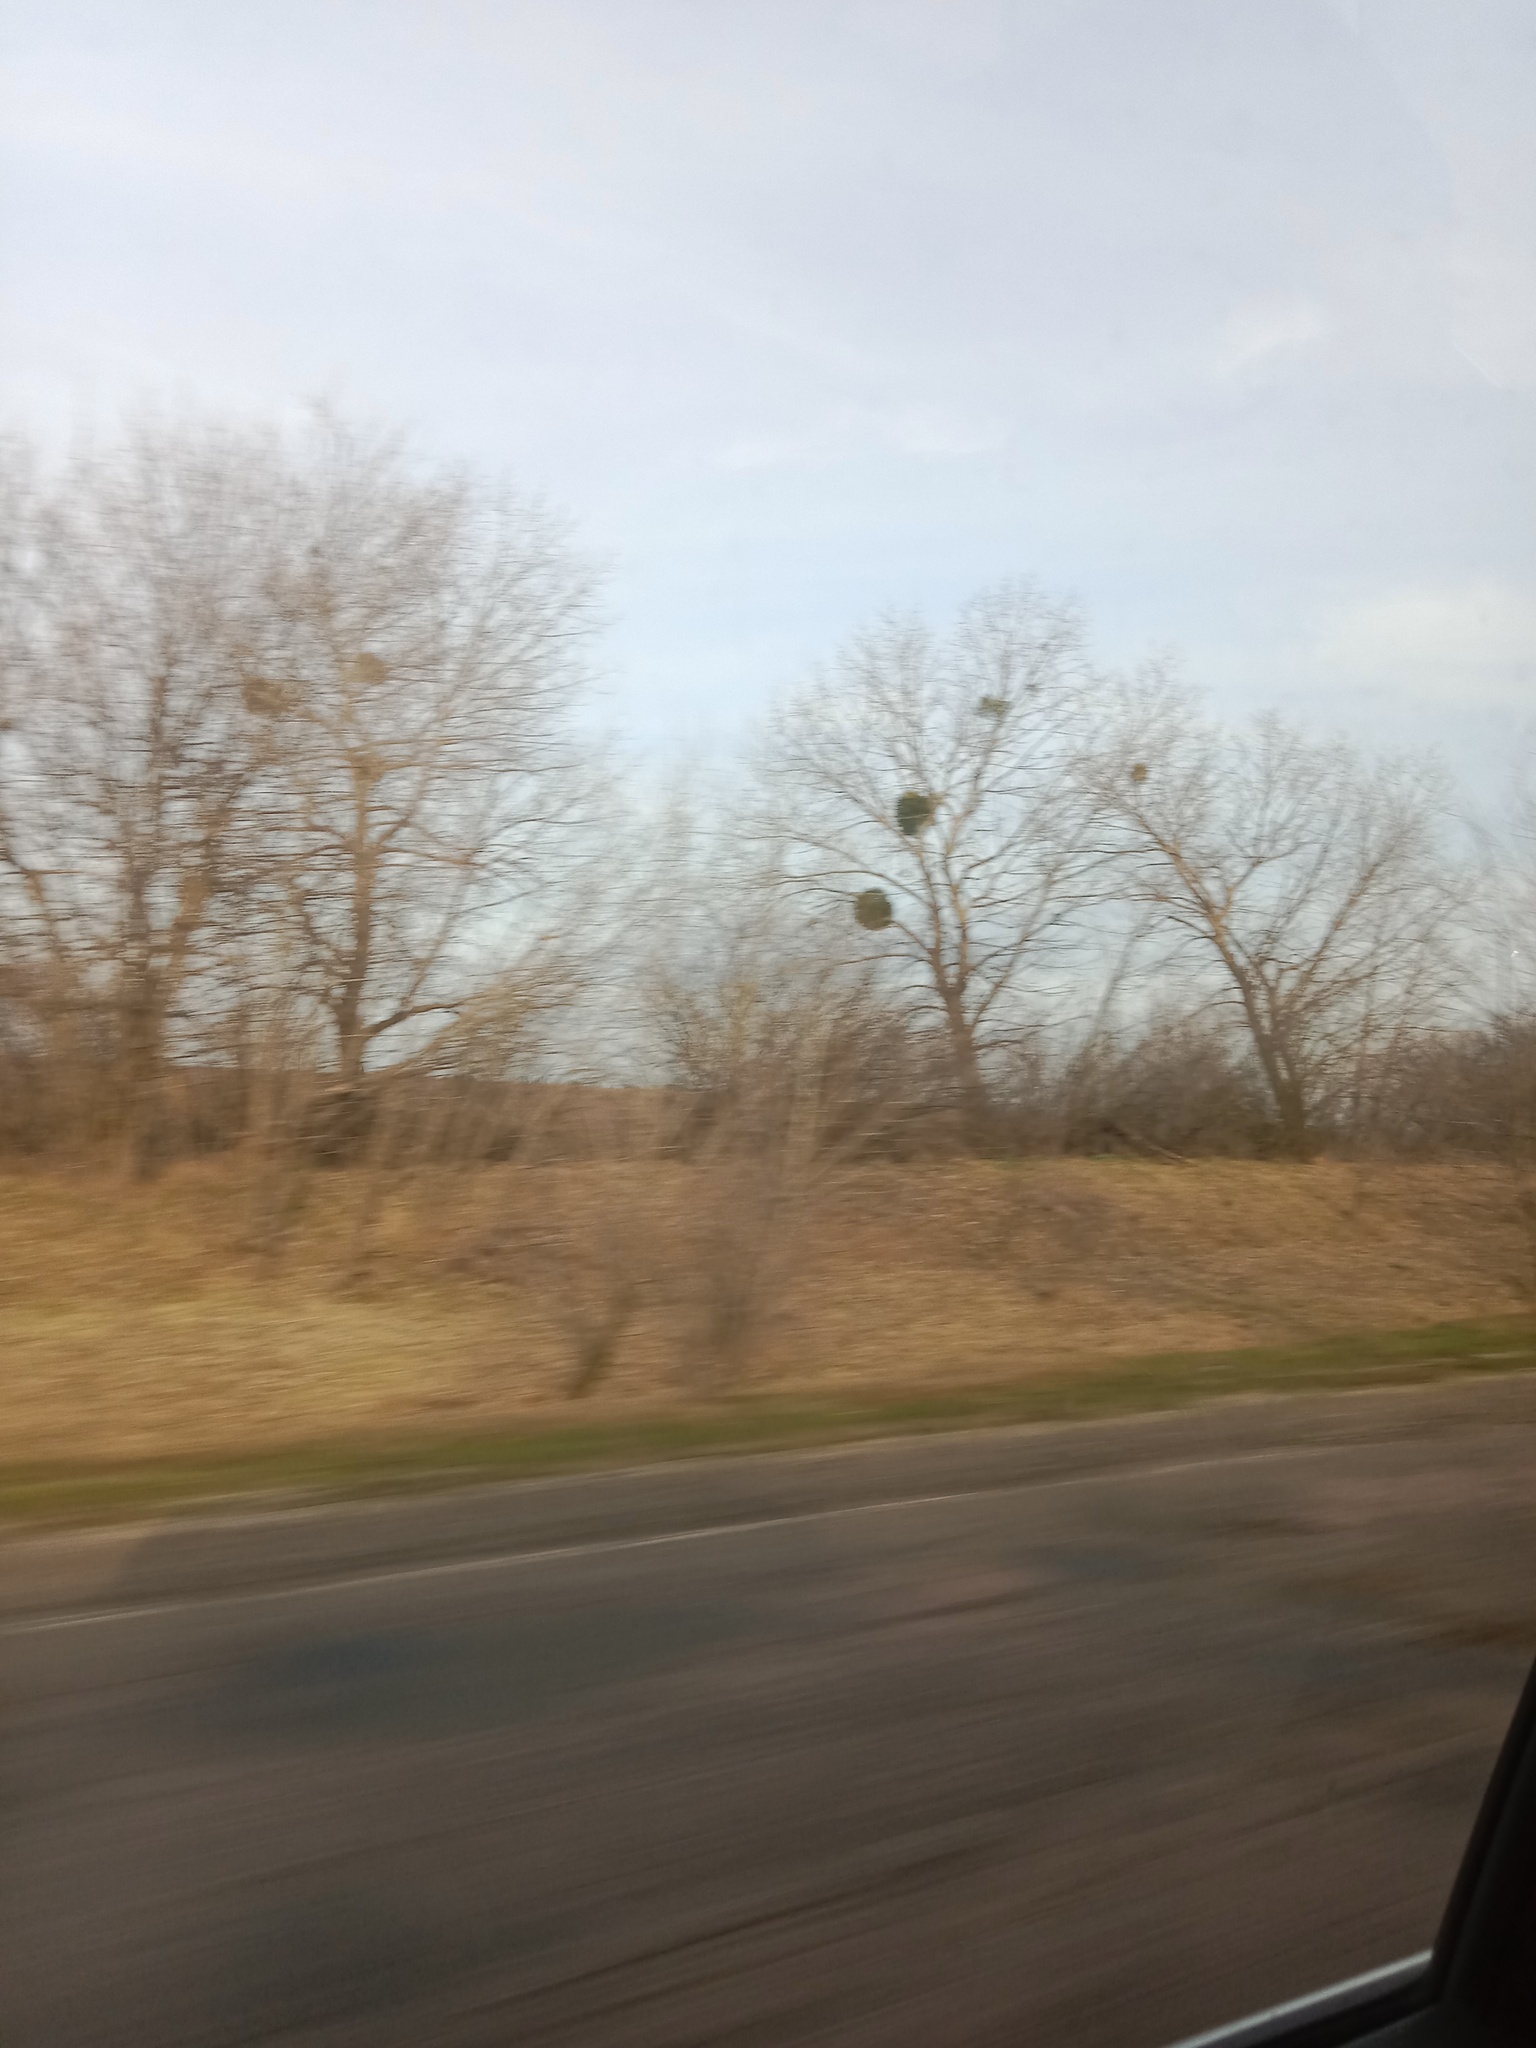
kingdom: Plantae
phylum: Tracheophyta
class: Magnoliopsida
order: Santalales
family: Viscaceae
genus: Viscum
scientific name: Viscum album
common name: Mistletoe
